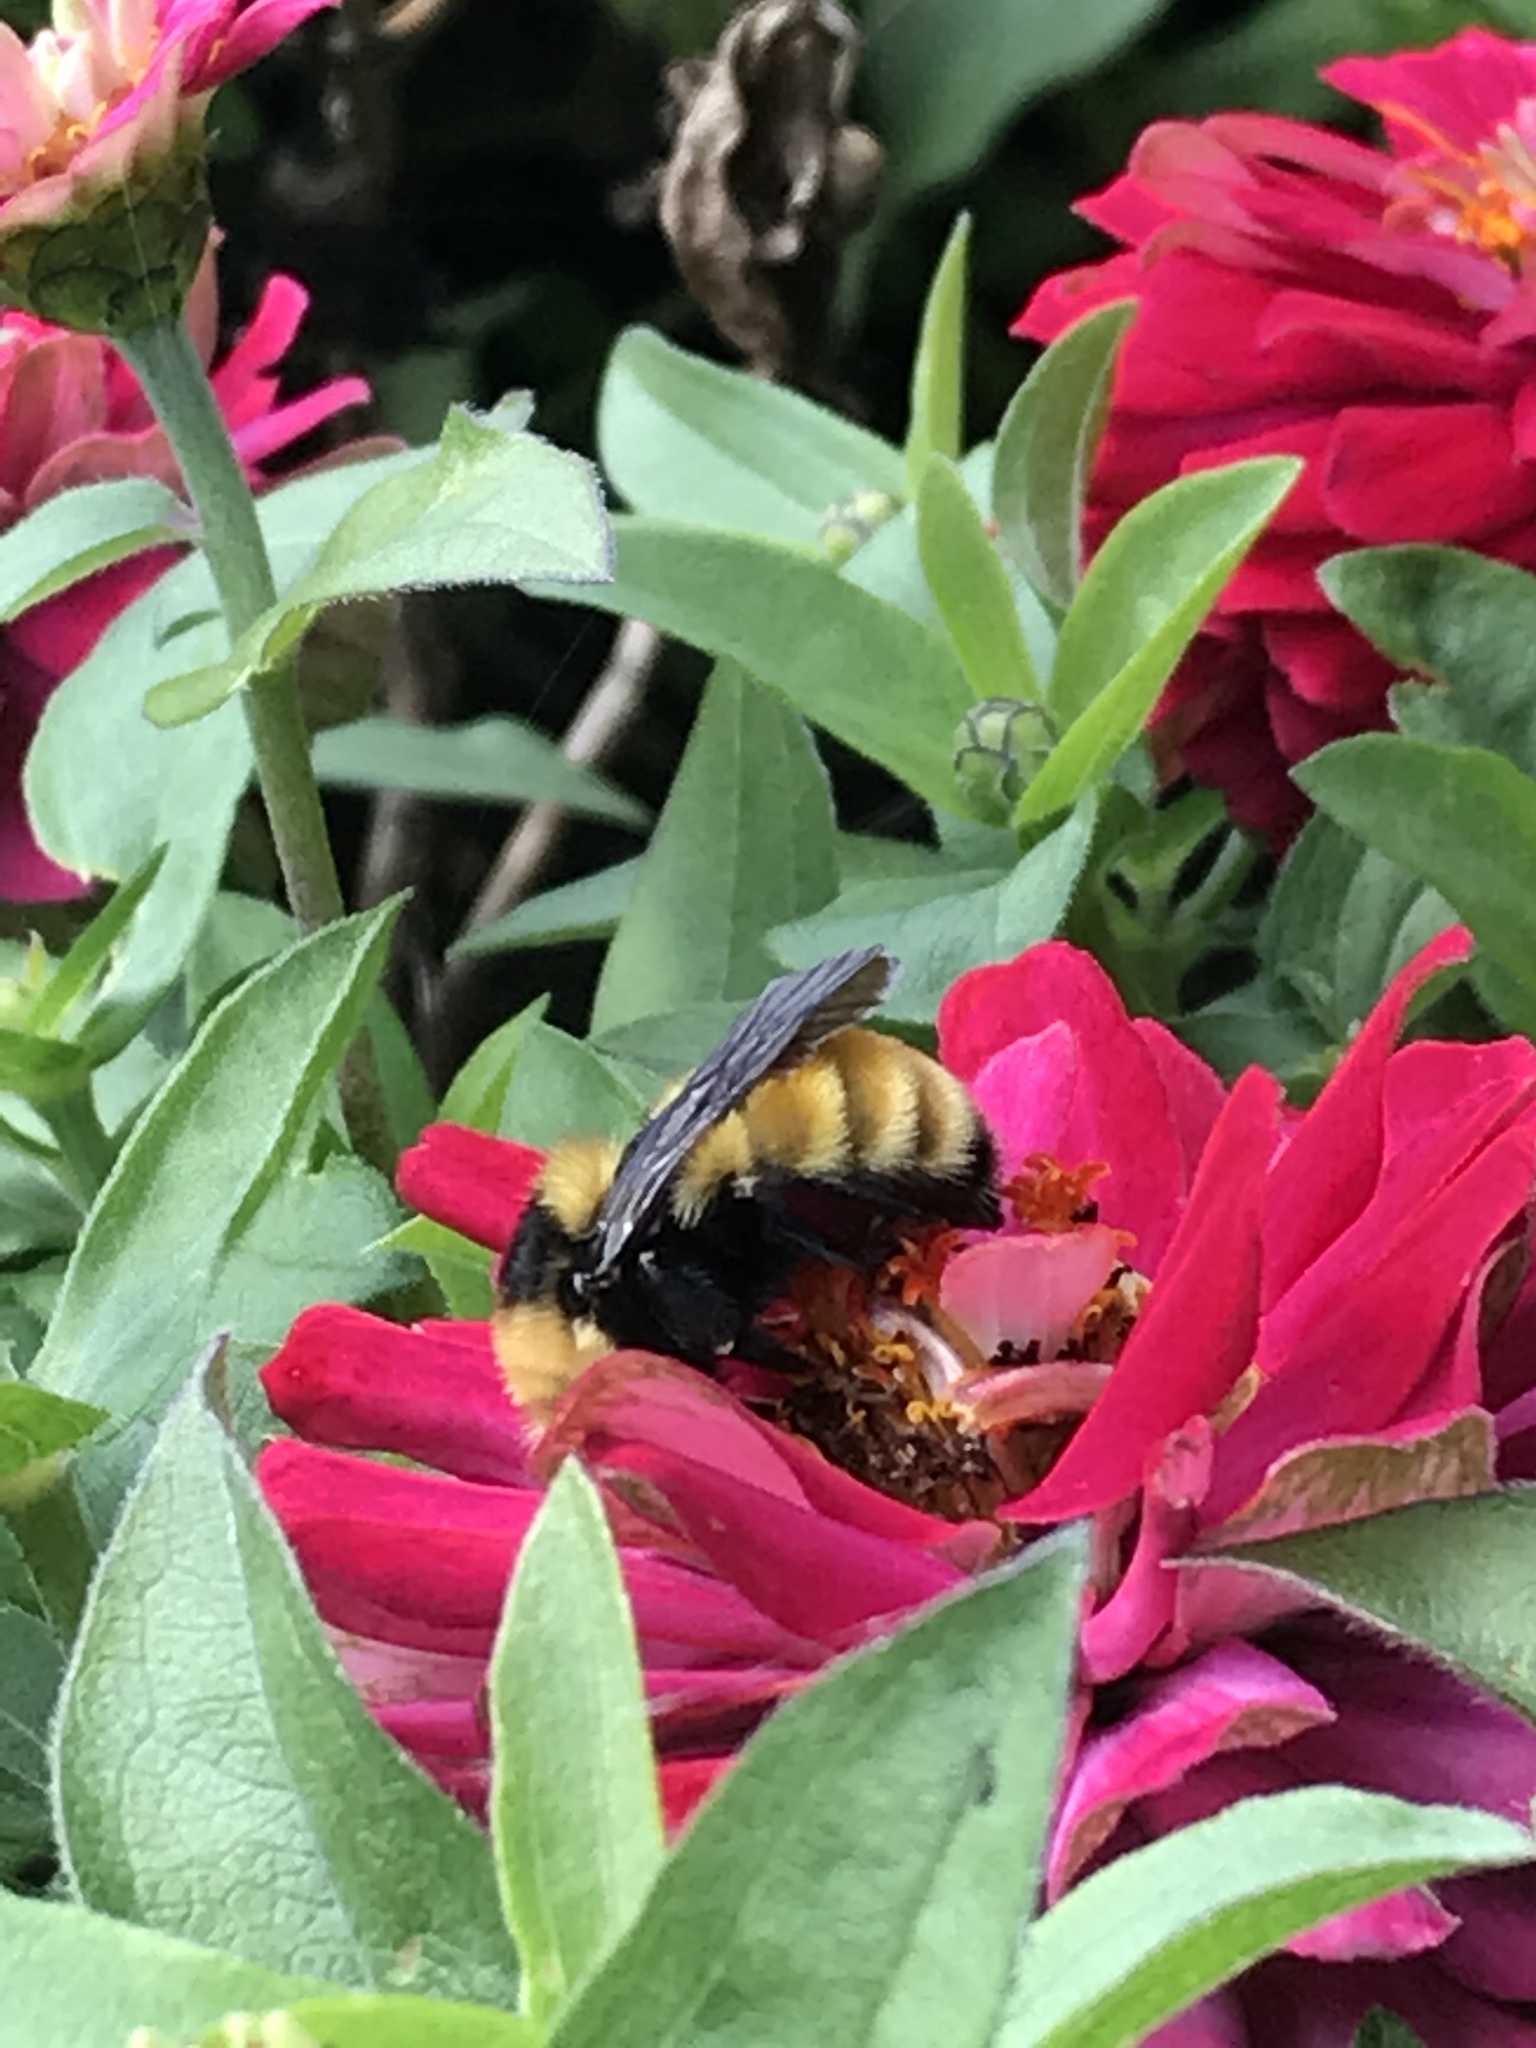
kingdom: Animalia
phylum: Arthropoda
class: Insecta
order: Hymenoptera
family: Apidae
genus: Bombus
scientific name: Bombus borealis
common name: Northern amber bumble bee
